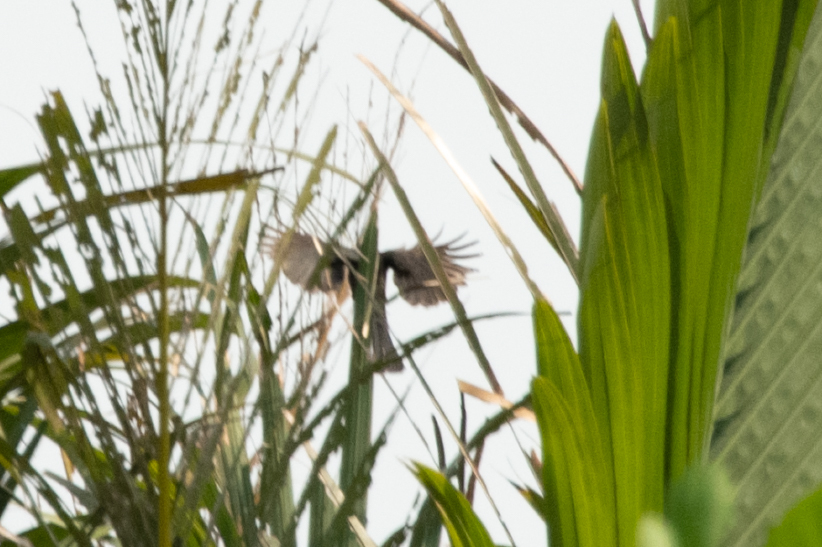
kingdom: Animalia
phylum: Chordata
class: Aves
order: Passeriformes
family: Corvidae
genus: Crypsirina
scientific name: Crypsirina temia
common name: Racket-tailed treepie
